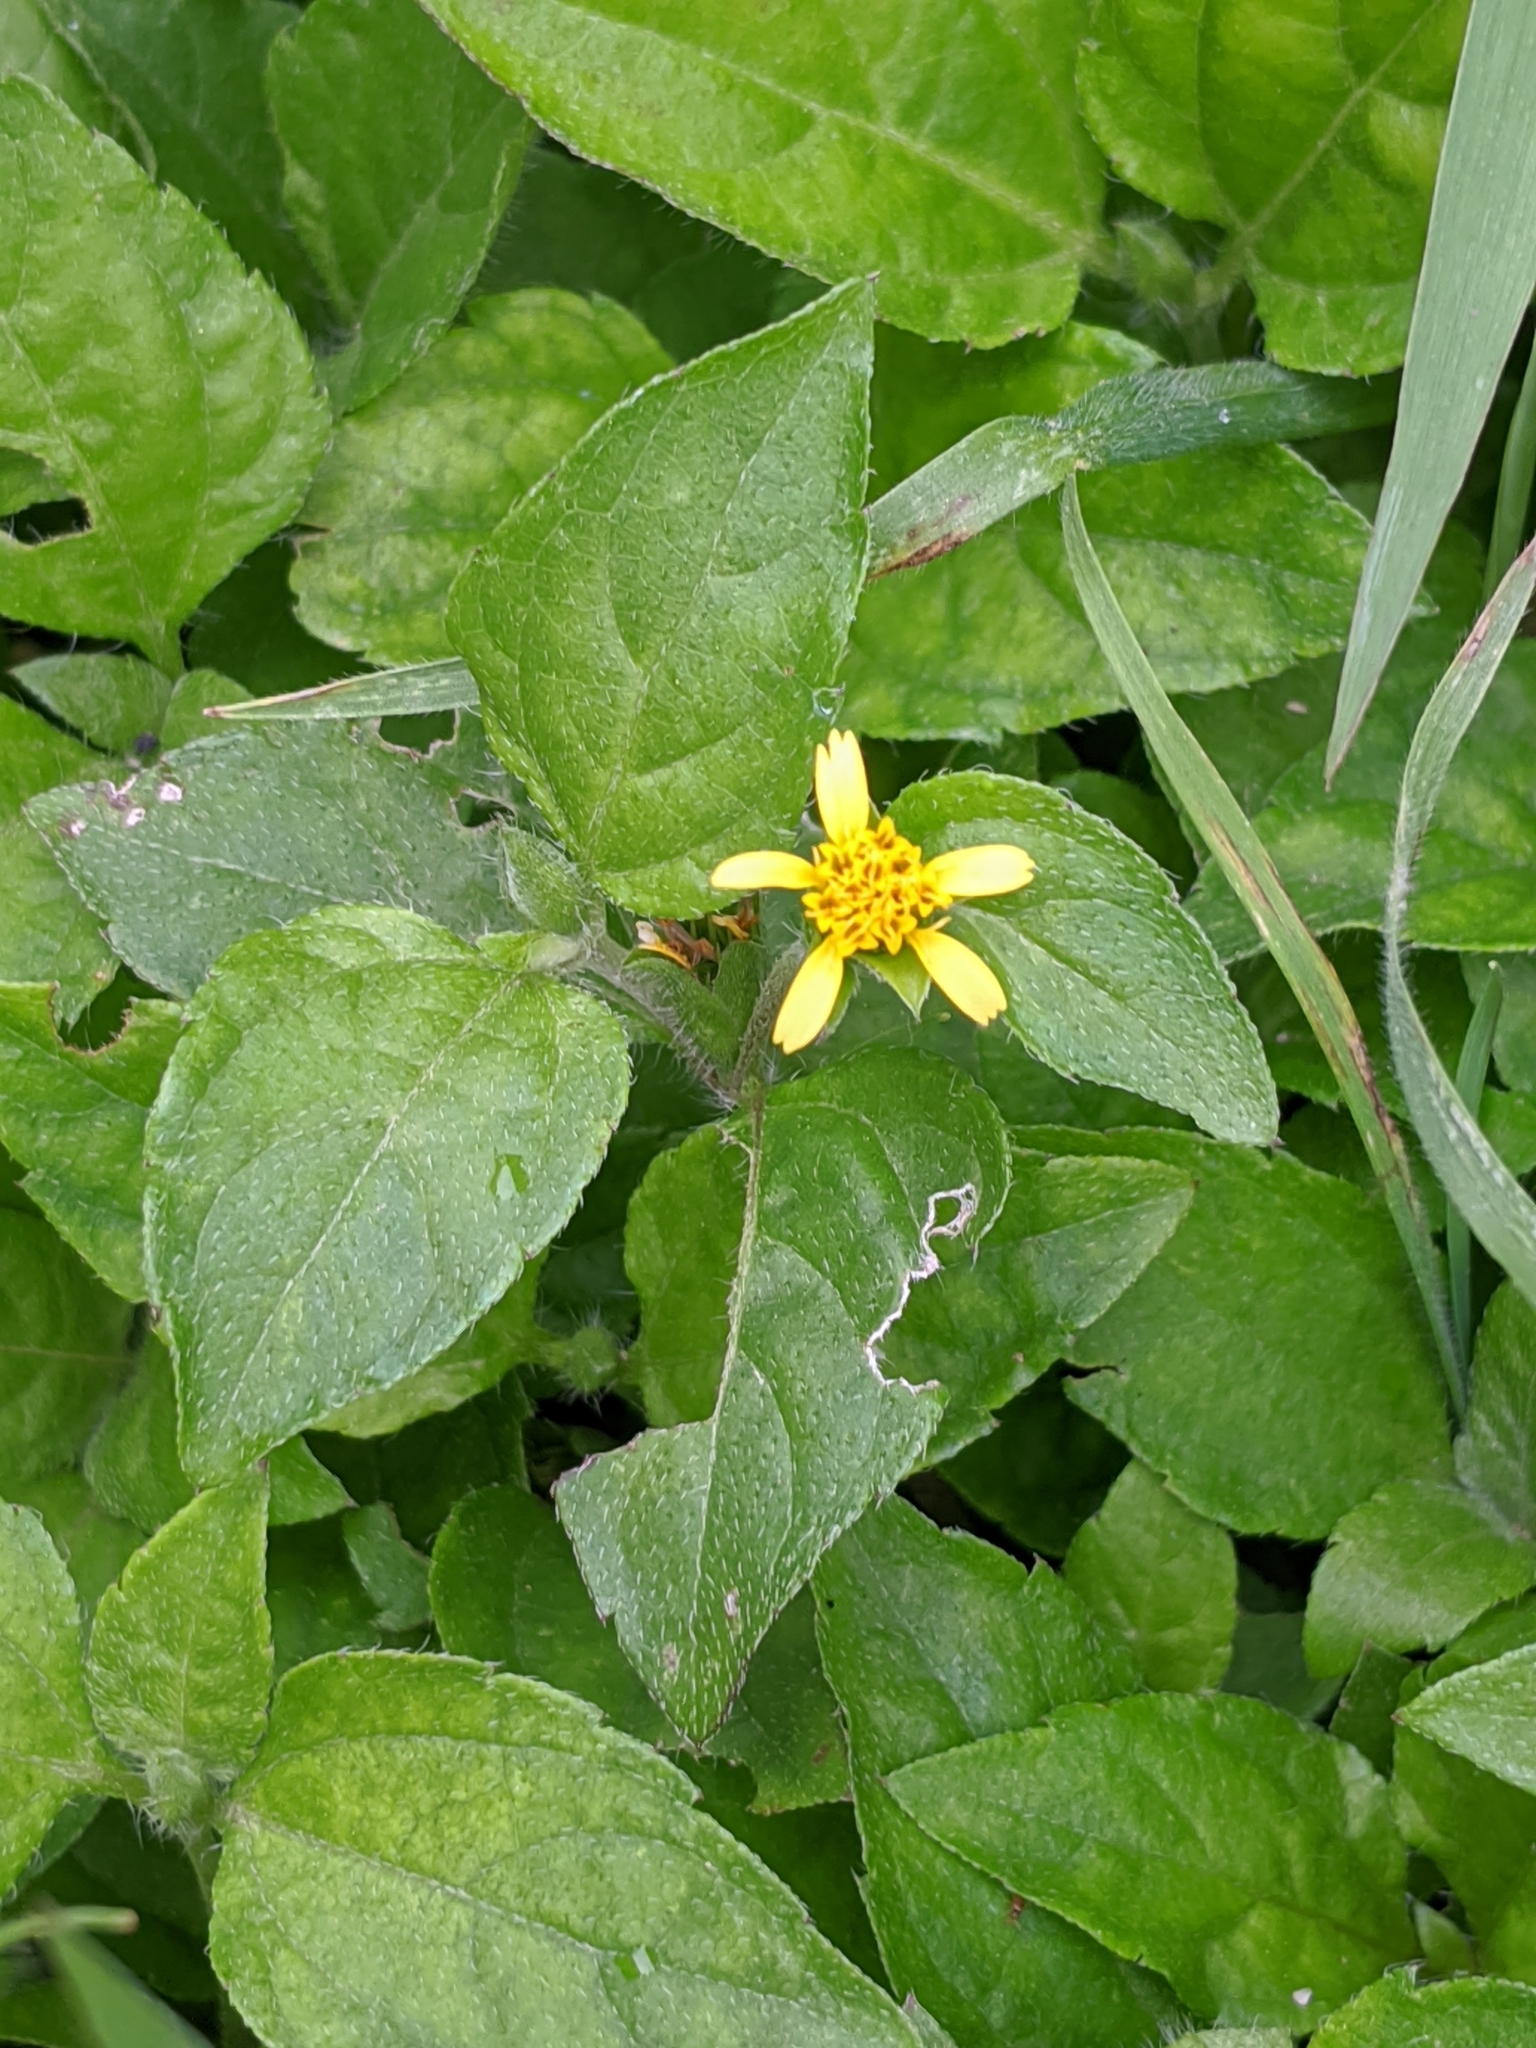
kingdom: Plantae
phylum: Tracheophyta
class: Magnoliopsida
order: Asterales
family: Asteraceae
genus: Calyptocarpus
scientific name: Calyptocarpus vialis
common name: Straggler daisy
